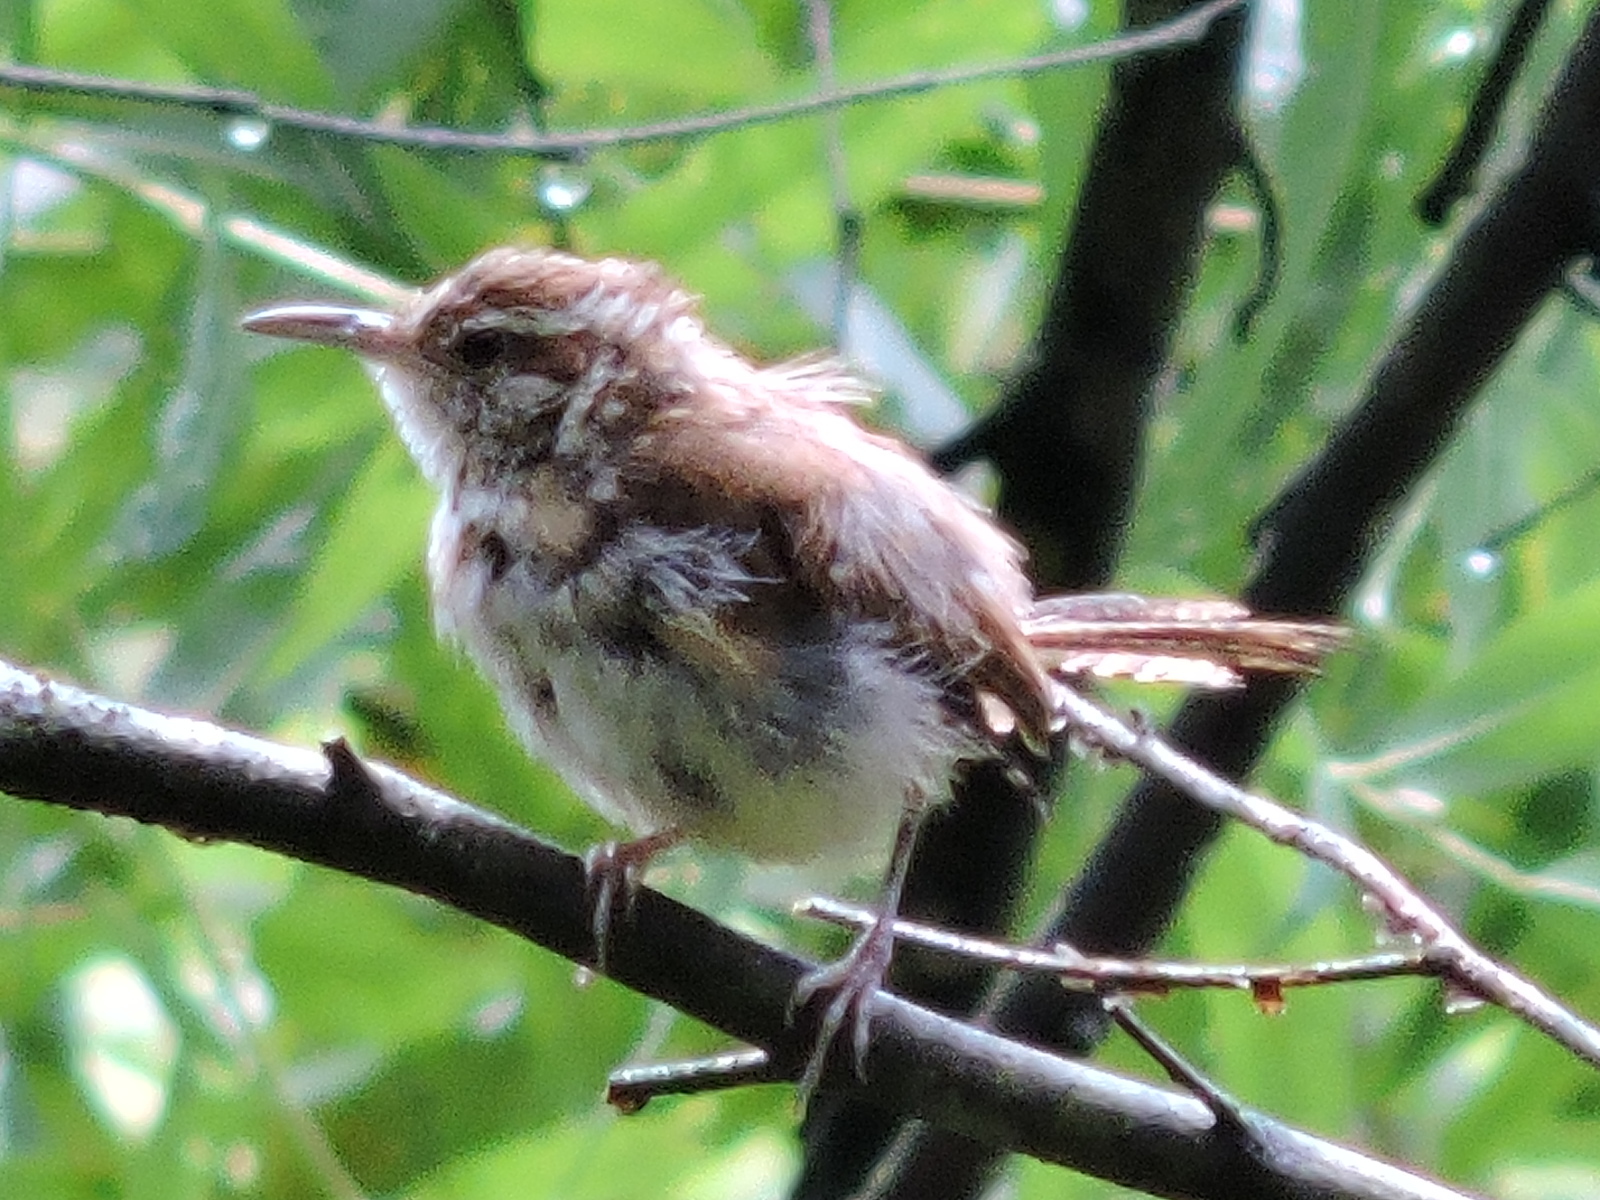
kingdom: Animalia
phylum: Chordata
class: Aves
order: Passeriformes
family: Troglodytidae
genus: Thryothorus
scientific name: Thryothorus ludovicianus
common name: Carolina wren
